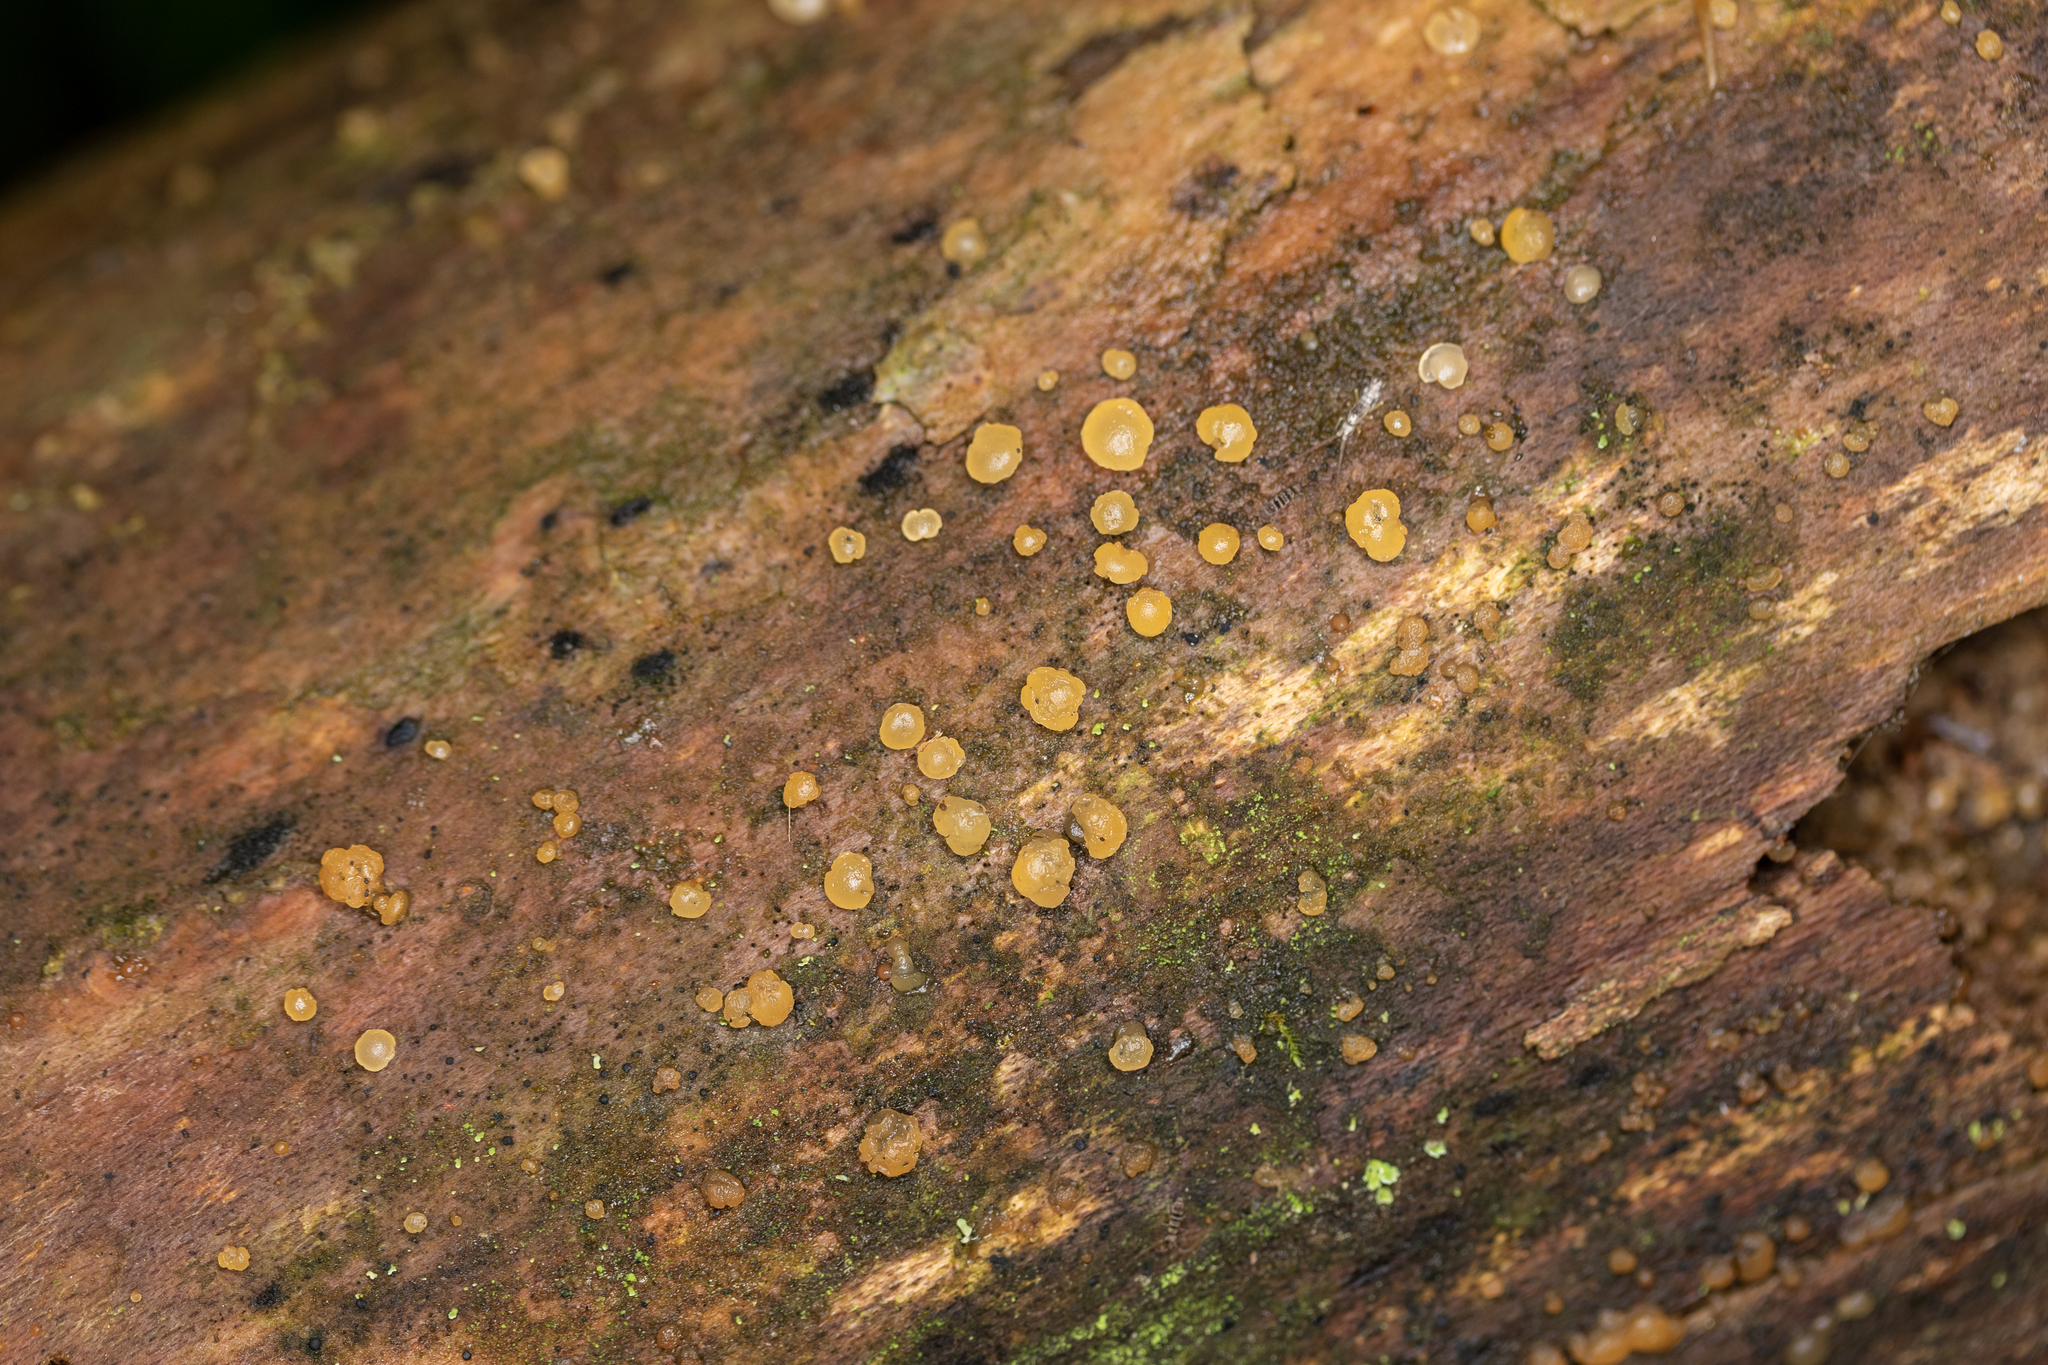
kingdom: Fungi
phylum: Basidiomycota
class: Dacrymycetes
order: Dacrymycetales
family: Dacrymycetaceae
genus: Dacrymyces
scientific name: Dacrymyces stillatus
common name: Common jelly spot
